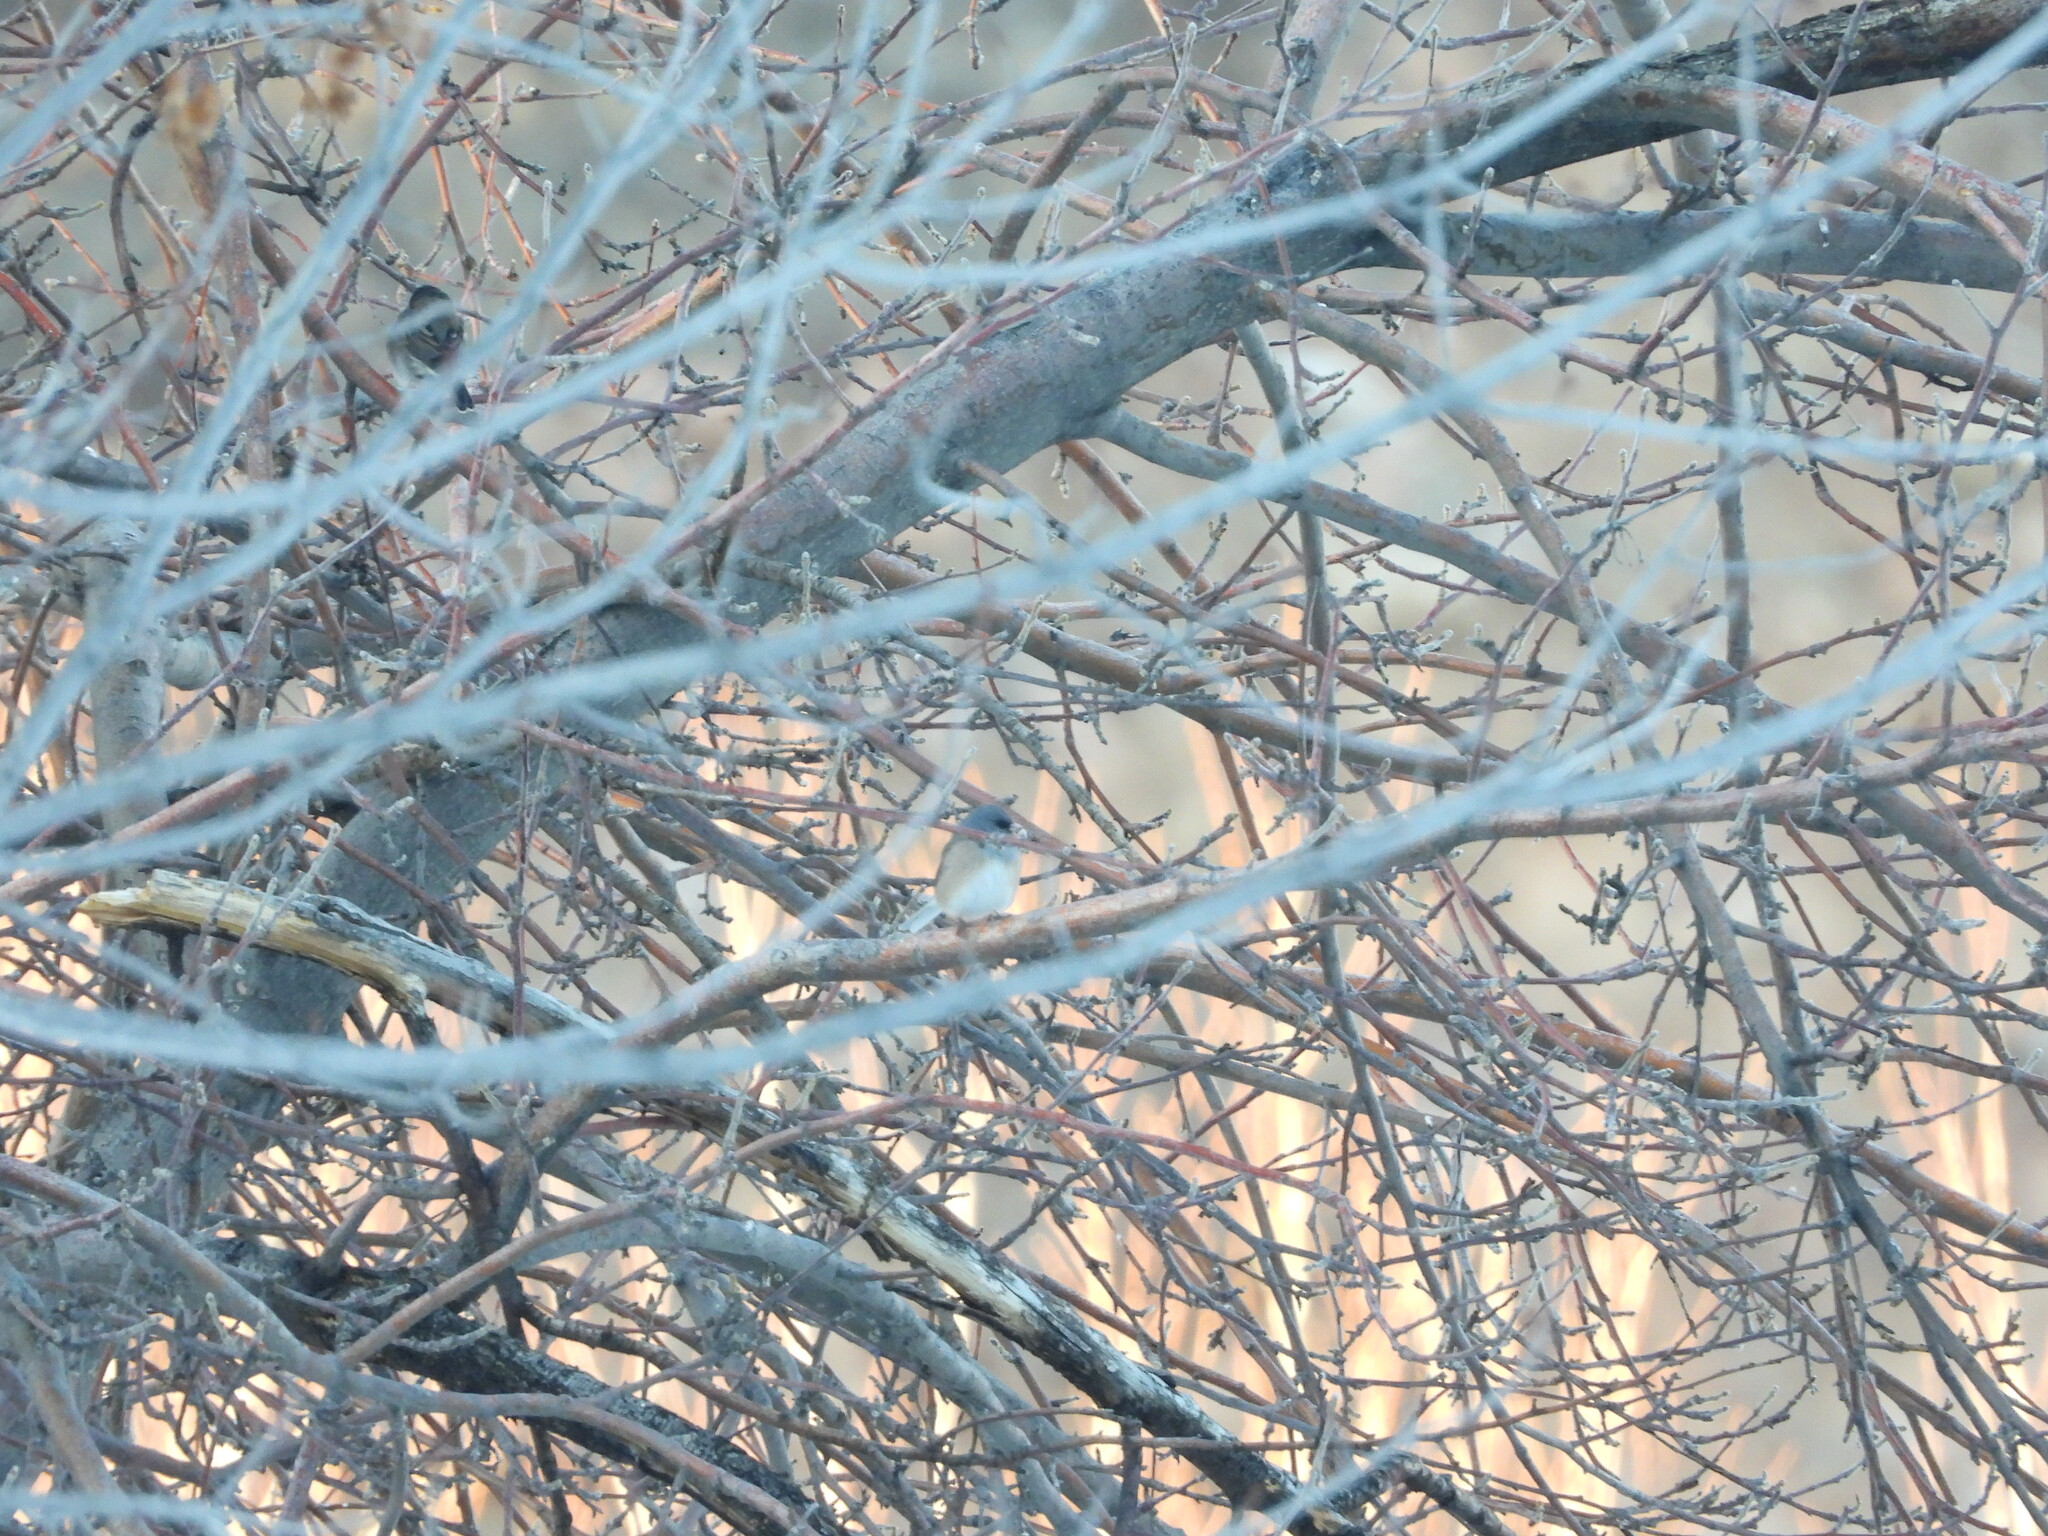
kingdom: Animalia
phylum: Chordata
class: Aves
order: Passeriformes
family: Passerellidae
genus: Junco
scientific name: Junco hyemalis
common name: Dark-eyed junco
